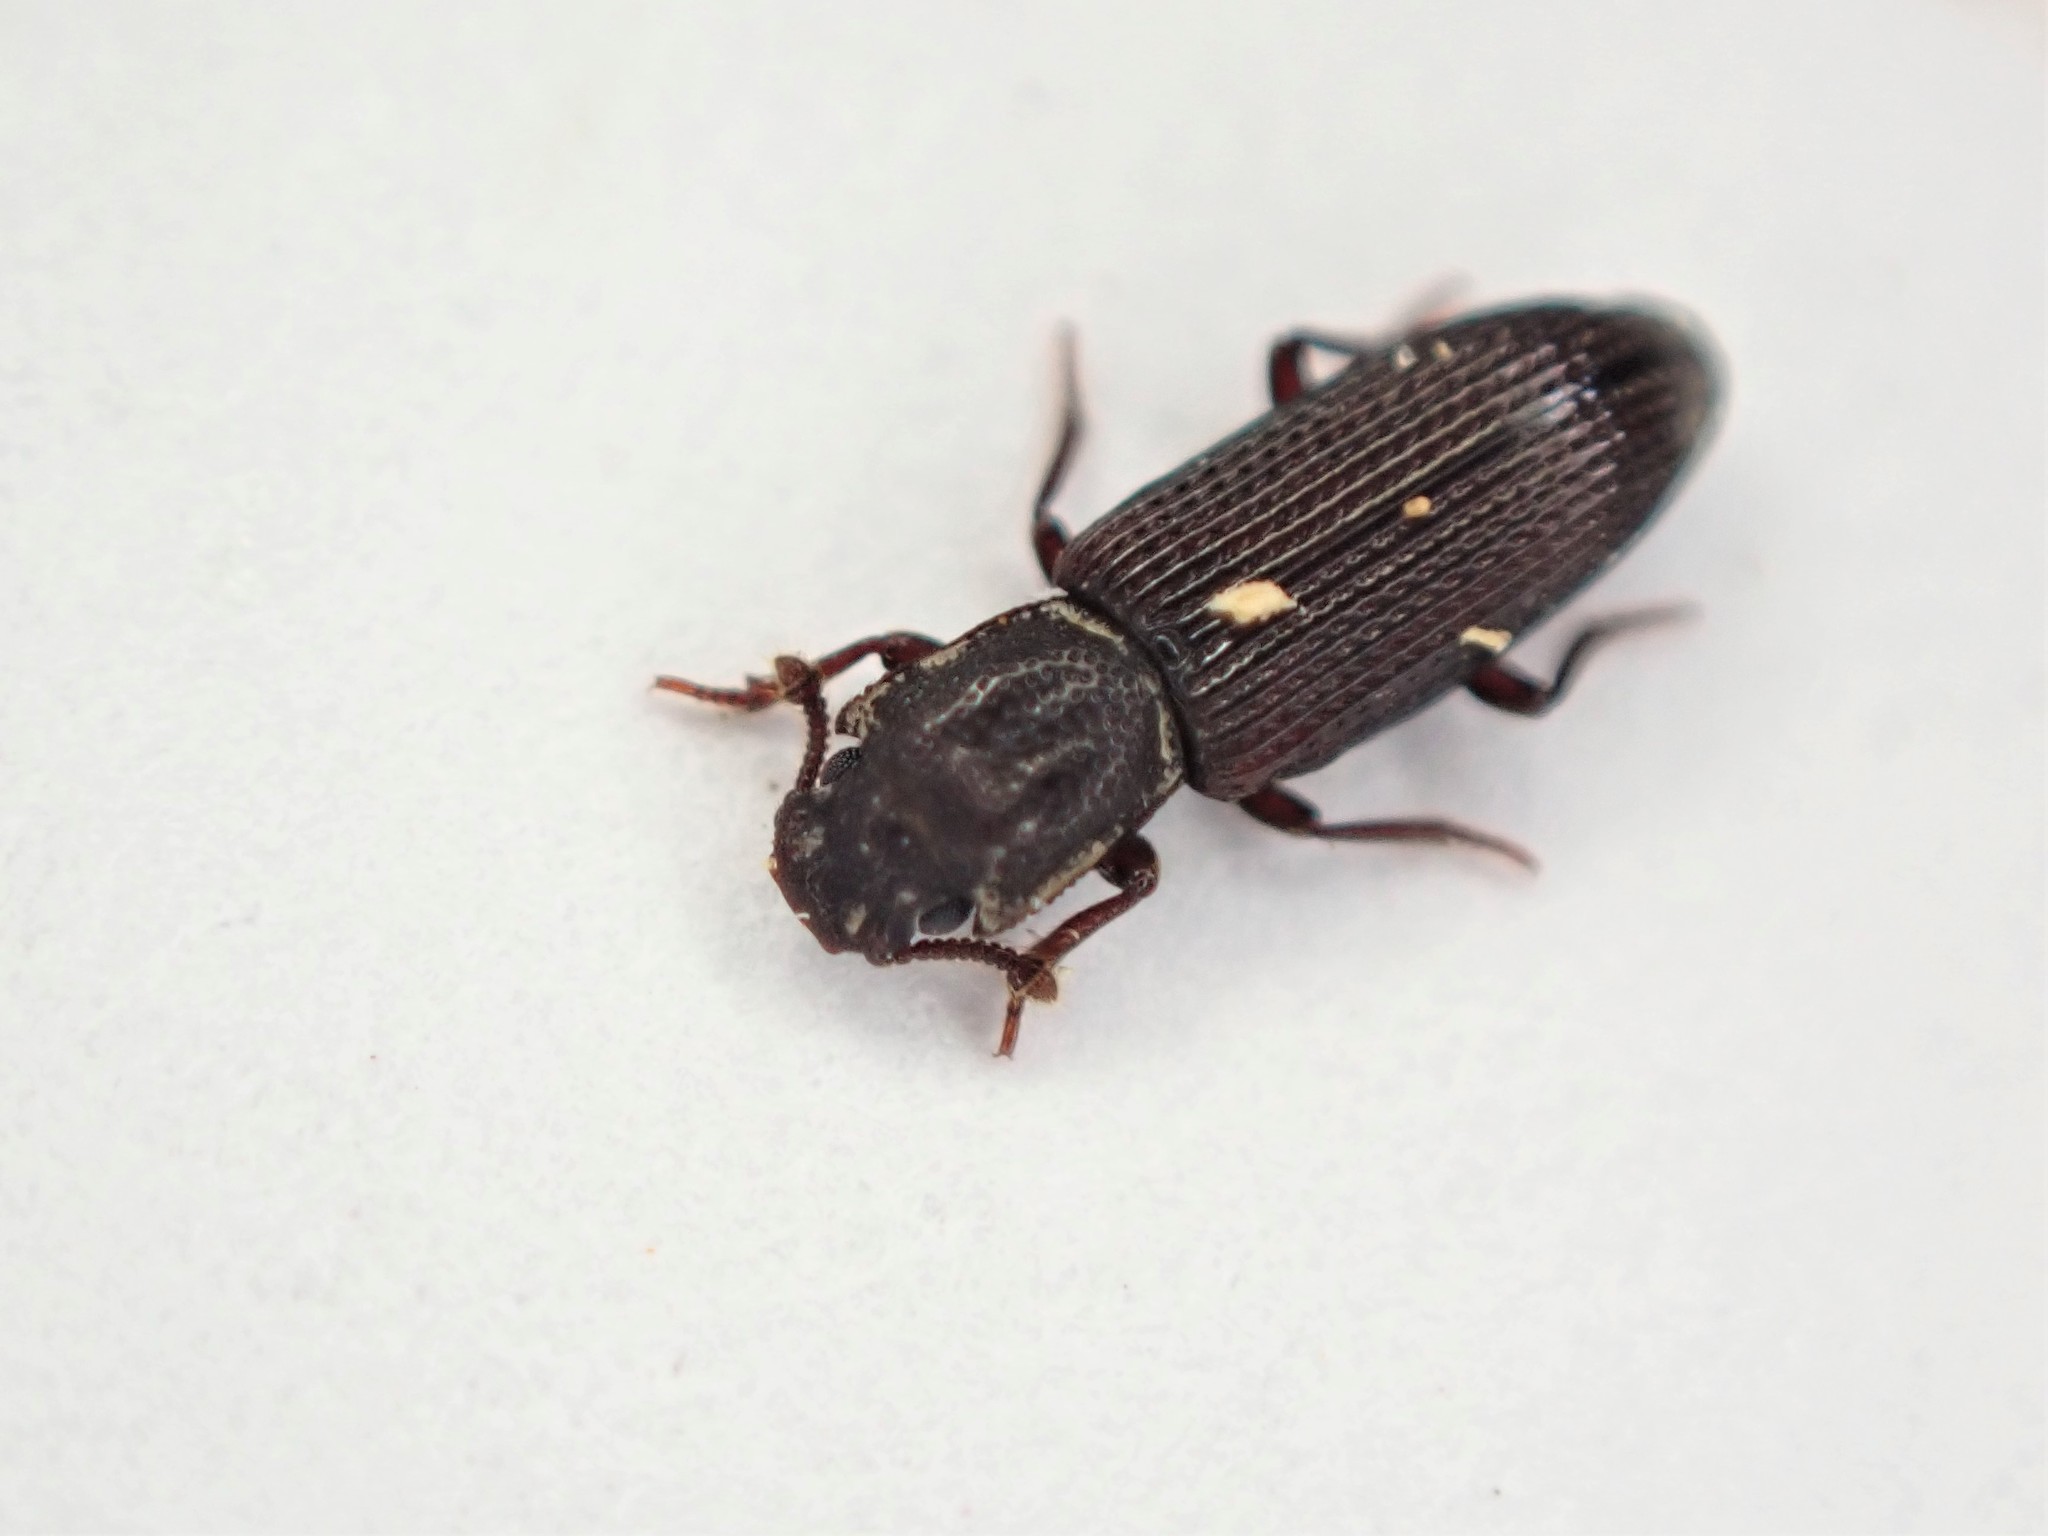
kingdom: Animalia
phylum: Arthropoda
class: Insecta
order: Coleoptera
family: Zopheridae
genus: Pycnomerus
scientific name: Pycnomerus
